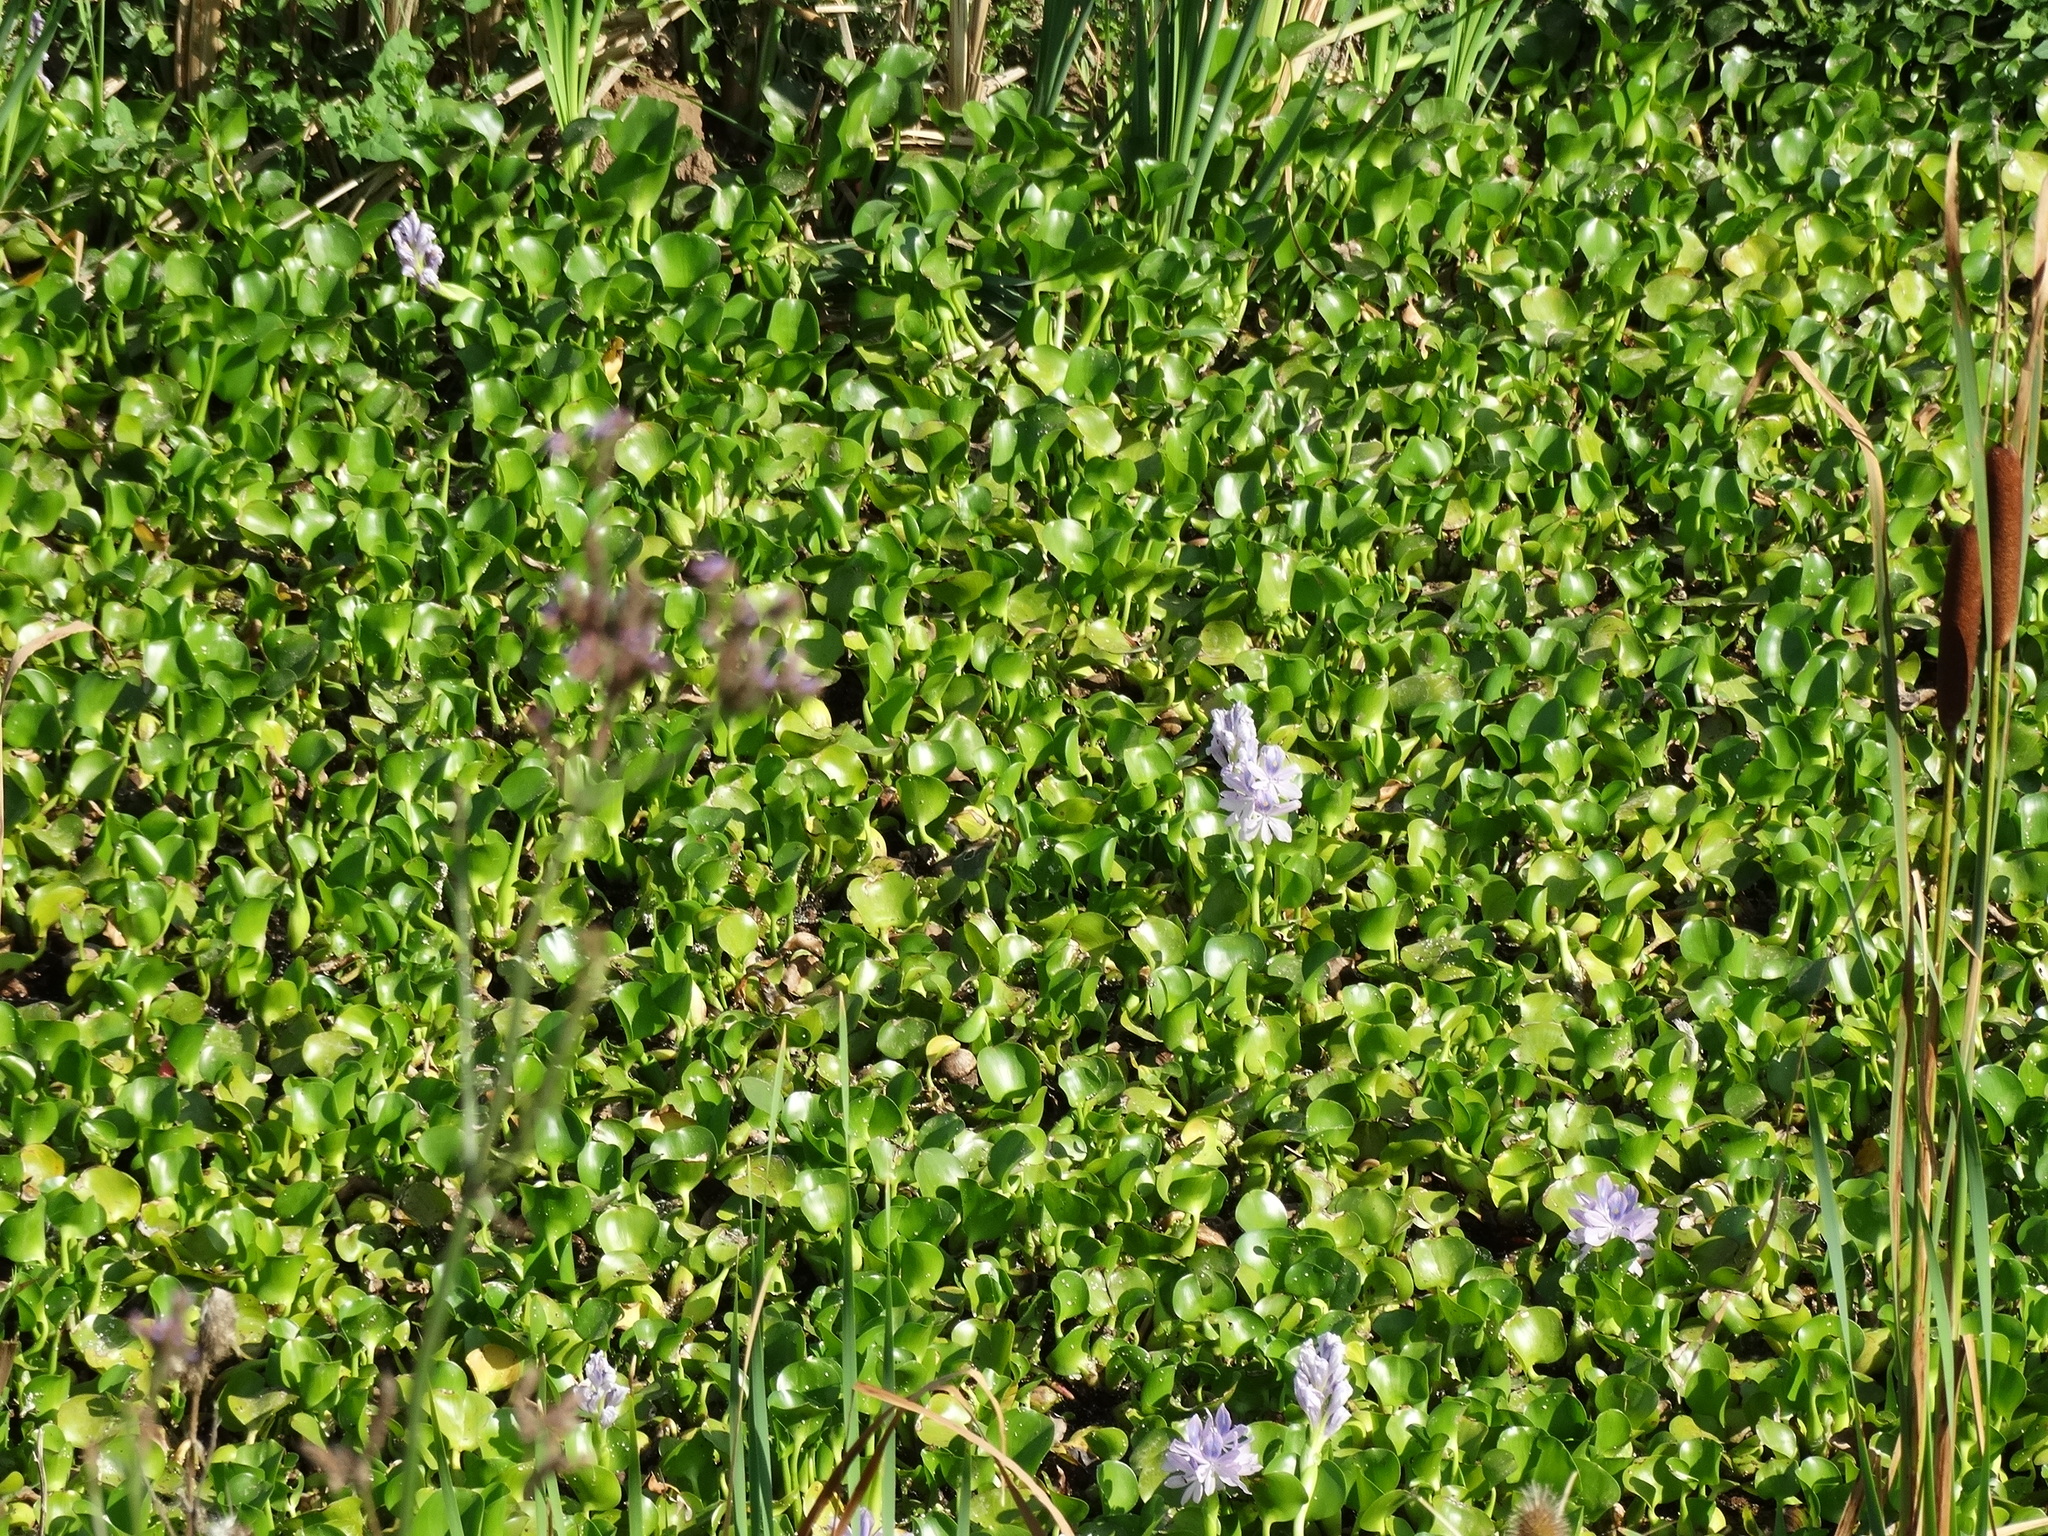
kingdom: Plantae
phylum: Tracheophyta
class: Liliopsida
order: Commelinales
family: Pontederiaceae
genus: Pontederia
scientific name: Pontederia crassipes
